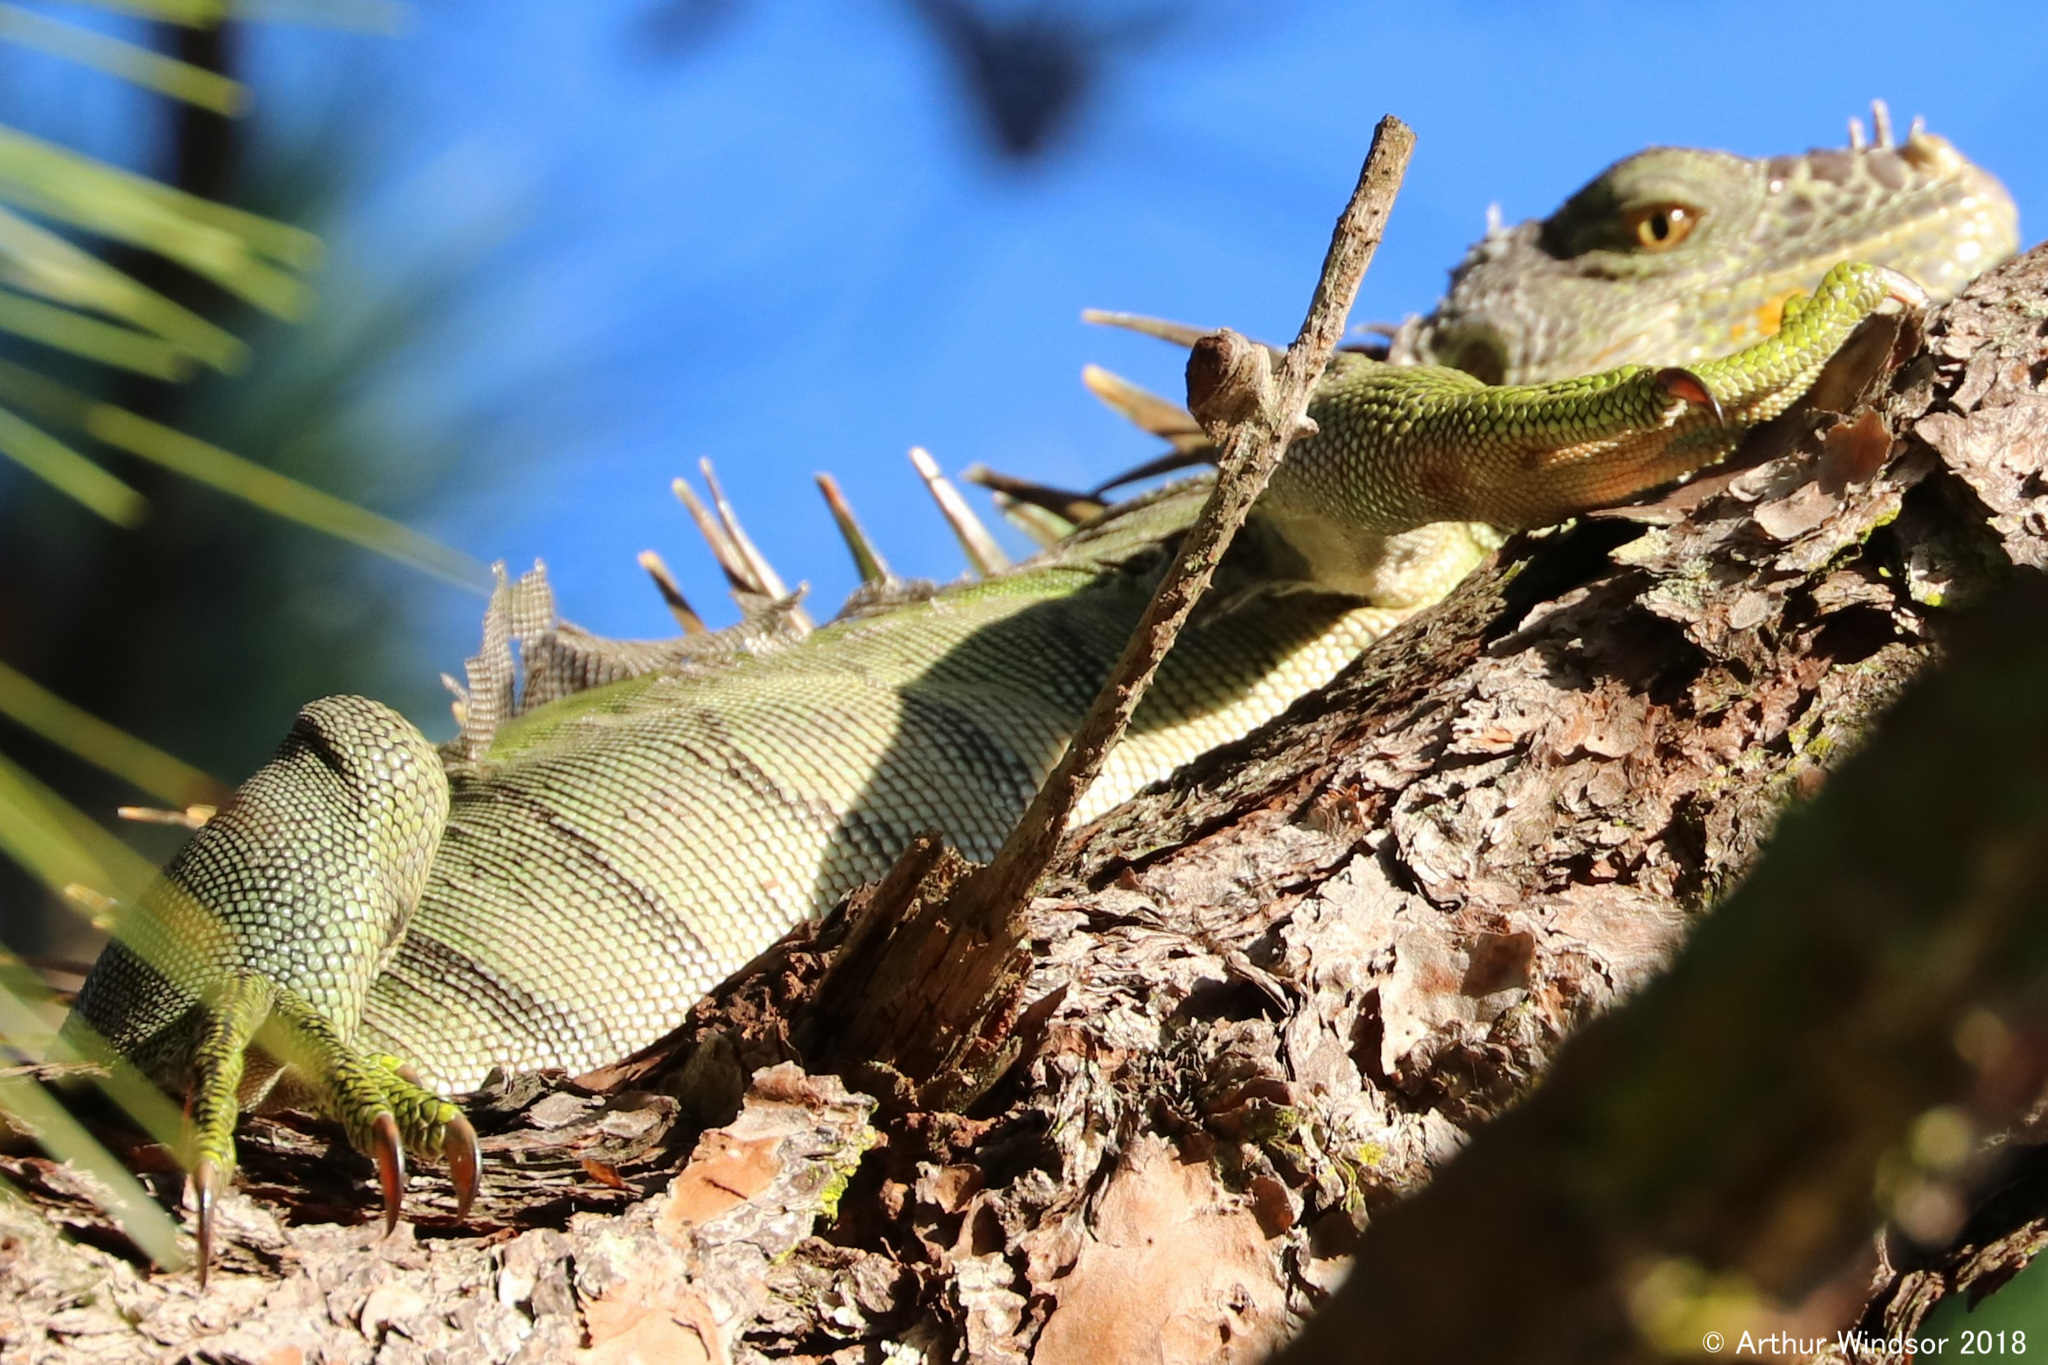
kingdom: Animalia
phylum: Chordata
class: Squamata
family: Iguanidae
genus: Iguana
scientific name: Iguana iguana
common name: Green iguana
